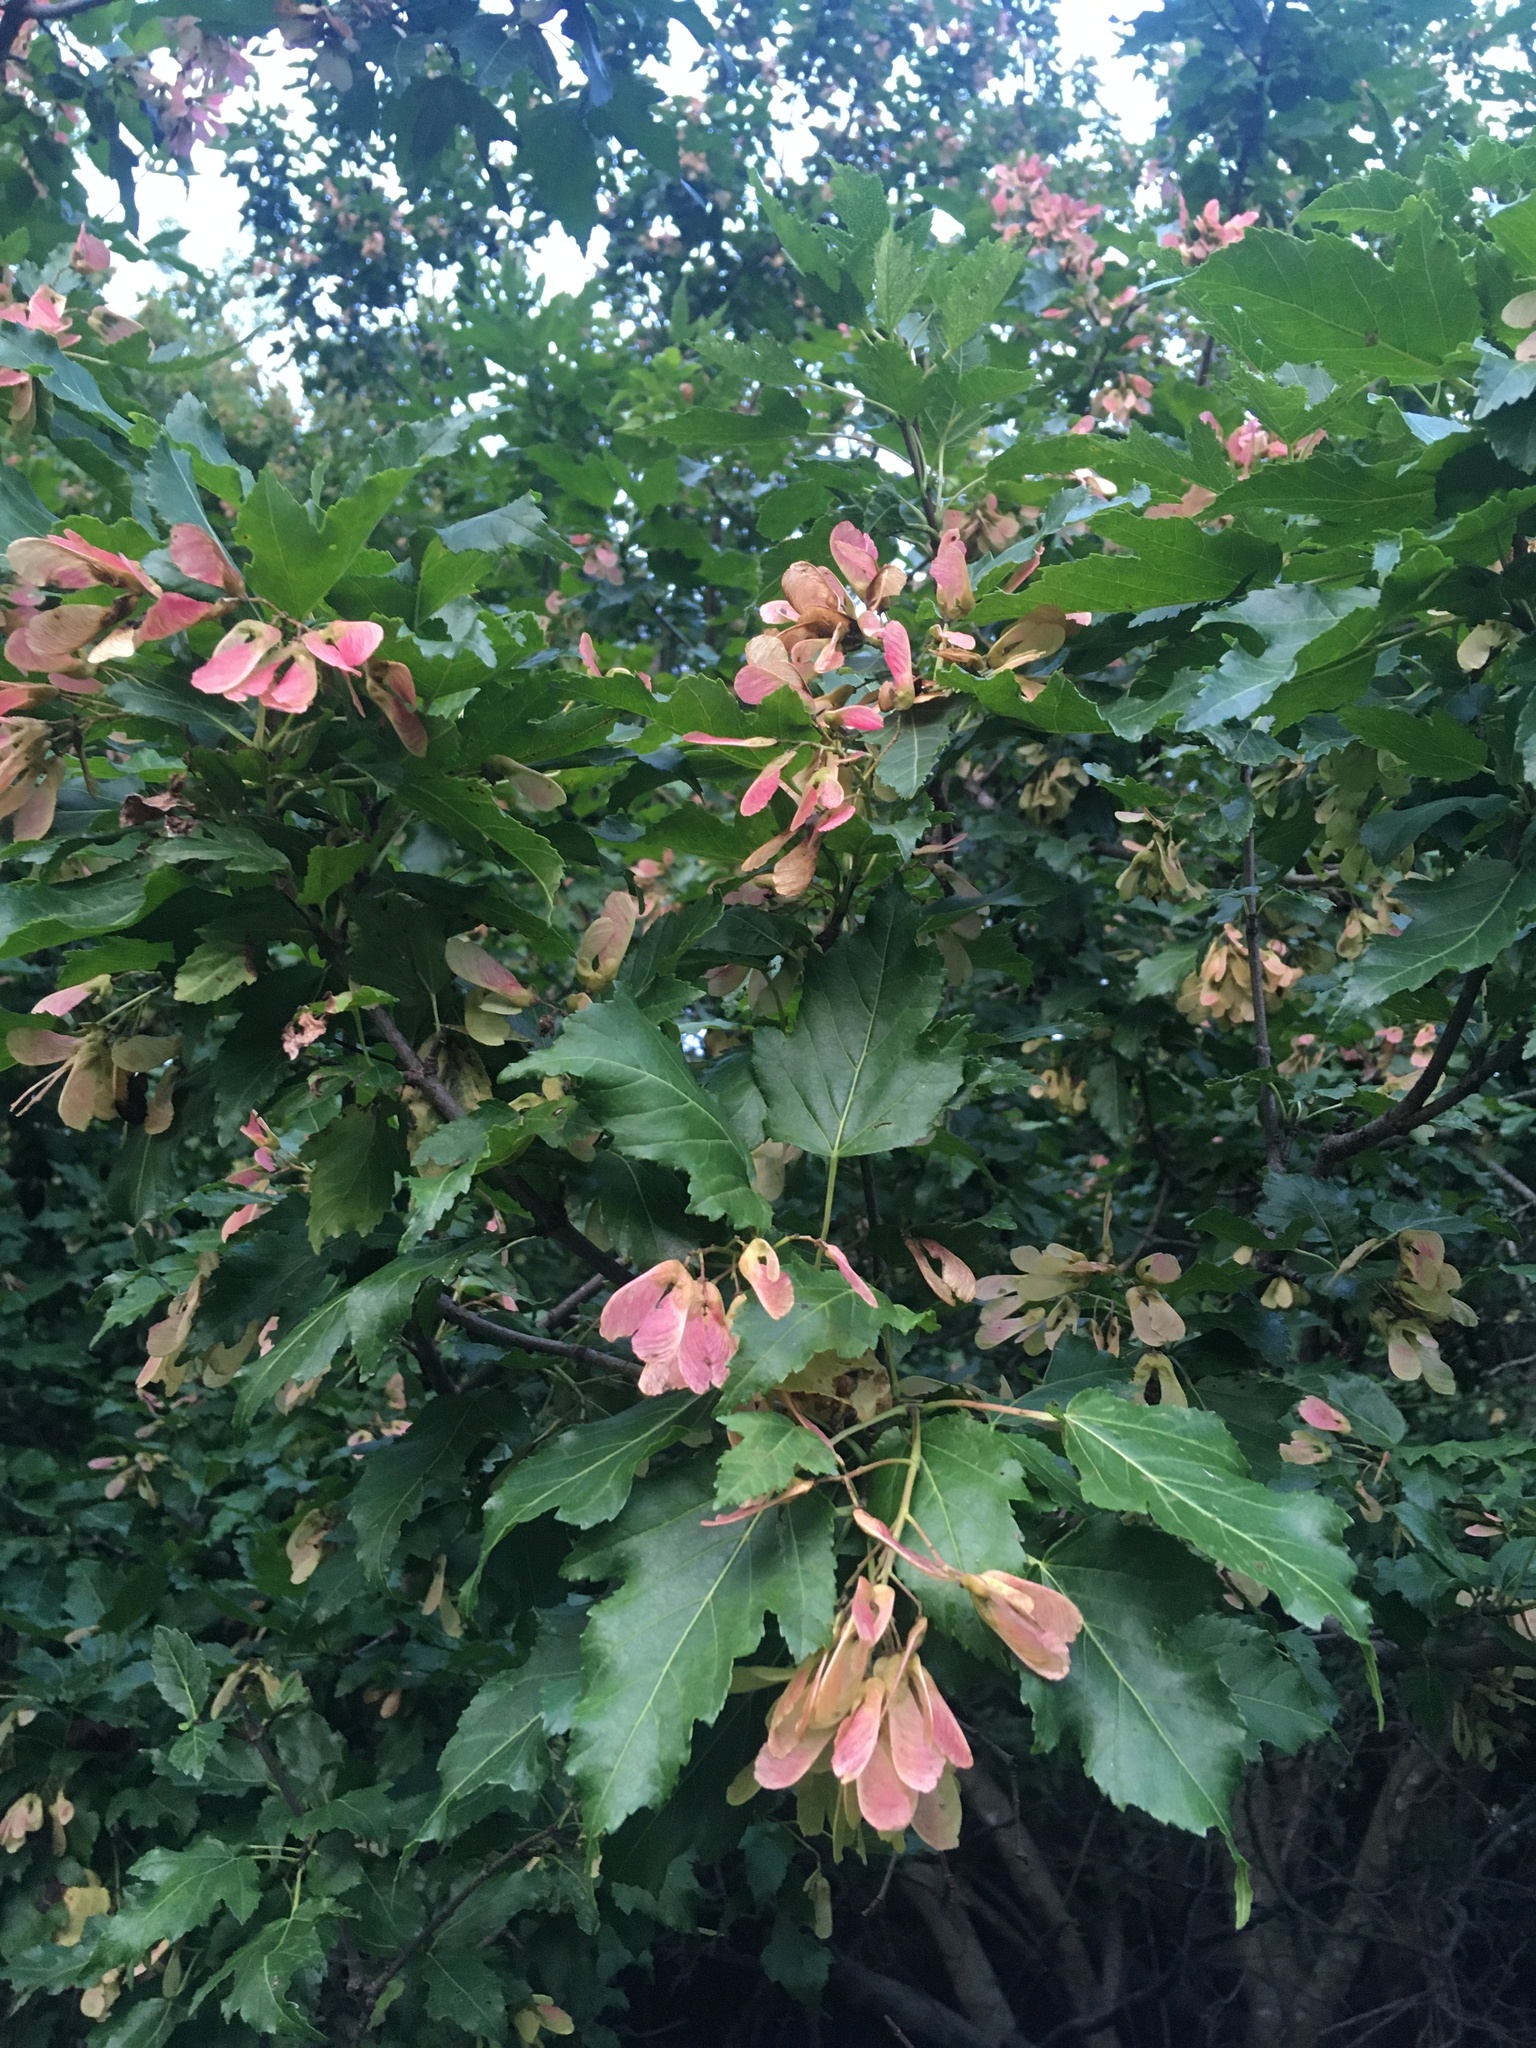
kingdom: Plantae
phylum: Tracheophyta
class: Magnoliopsida
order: Sapindales
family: Sapindaceae
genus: Acer
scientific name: Acer tataricum
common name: Tartar maple
